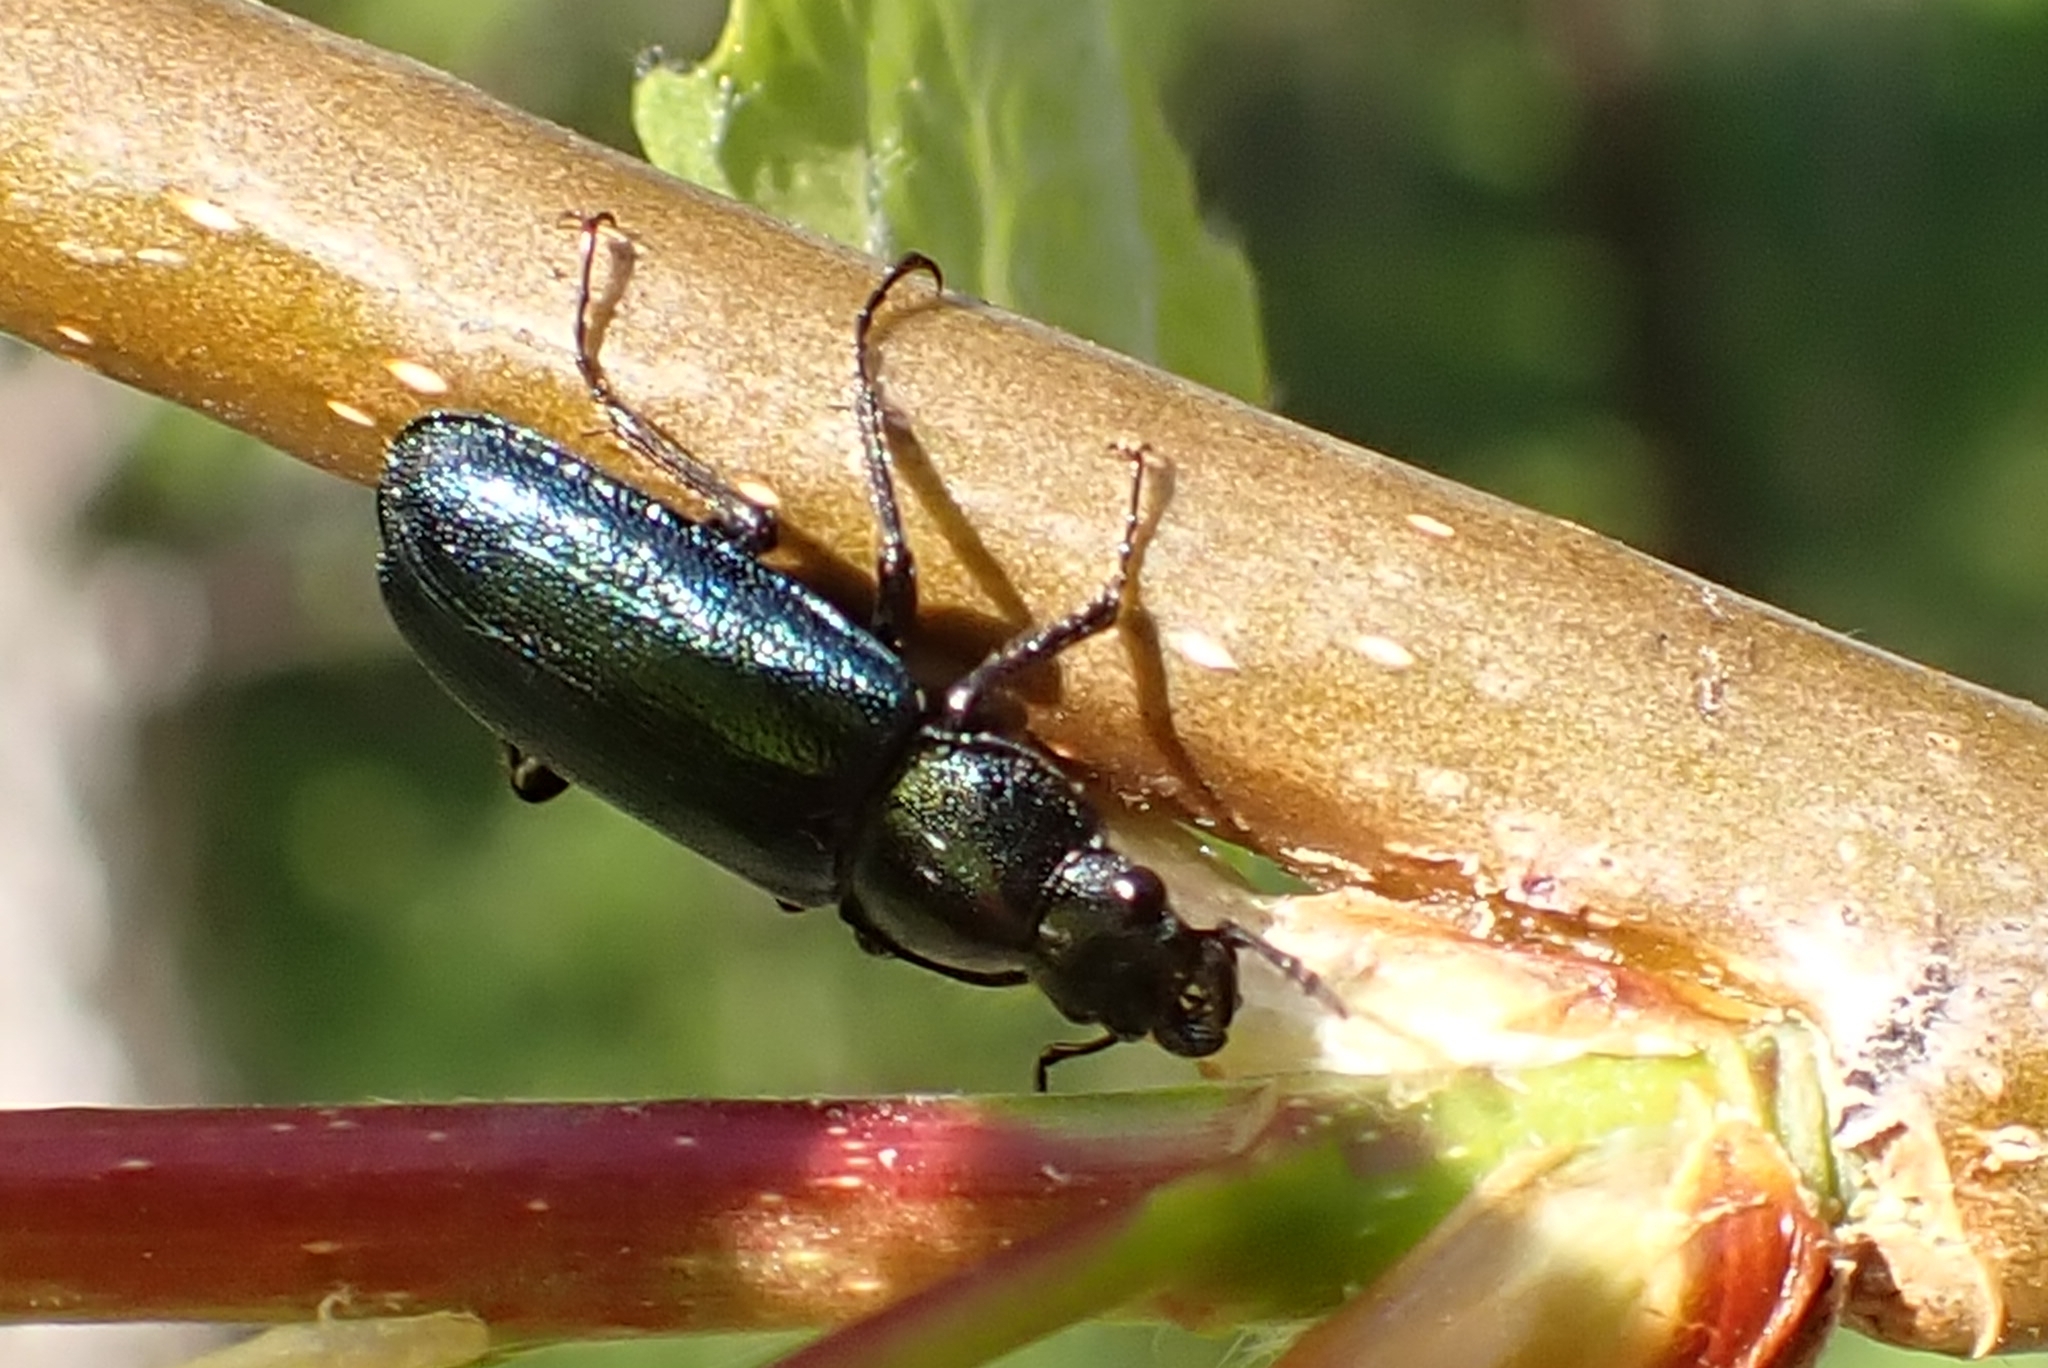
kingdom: Animalia
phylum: Arthropoda
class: Insecta
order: Coleoptera
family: Lucanidae
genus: Platycerus
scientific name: Platycerus caraboides
